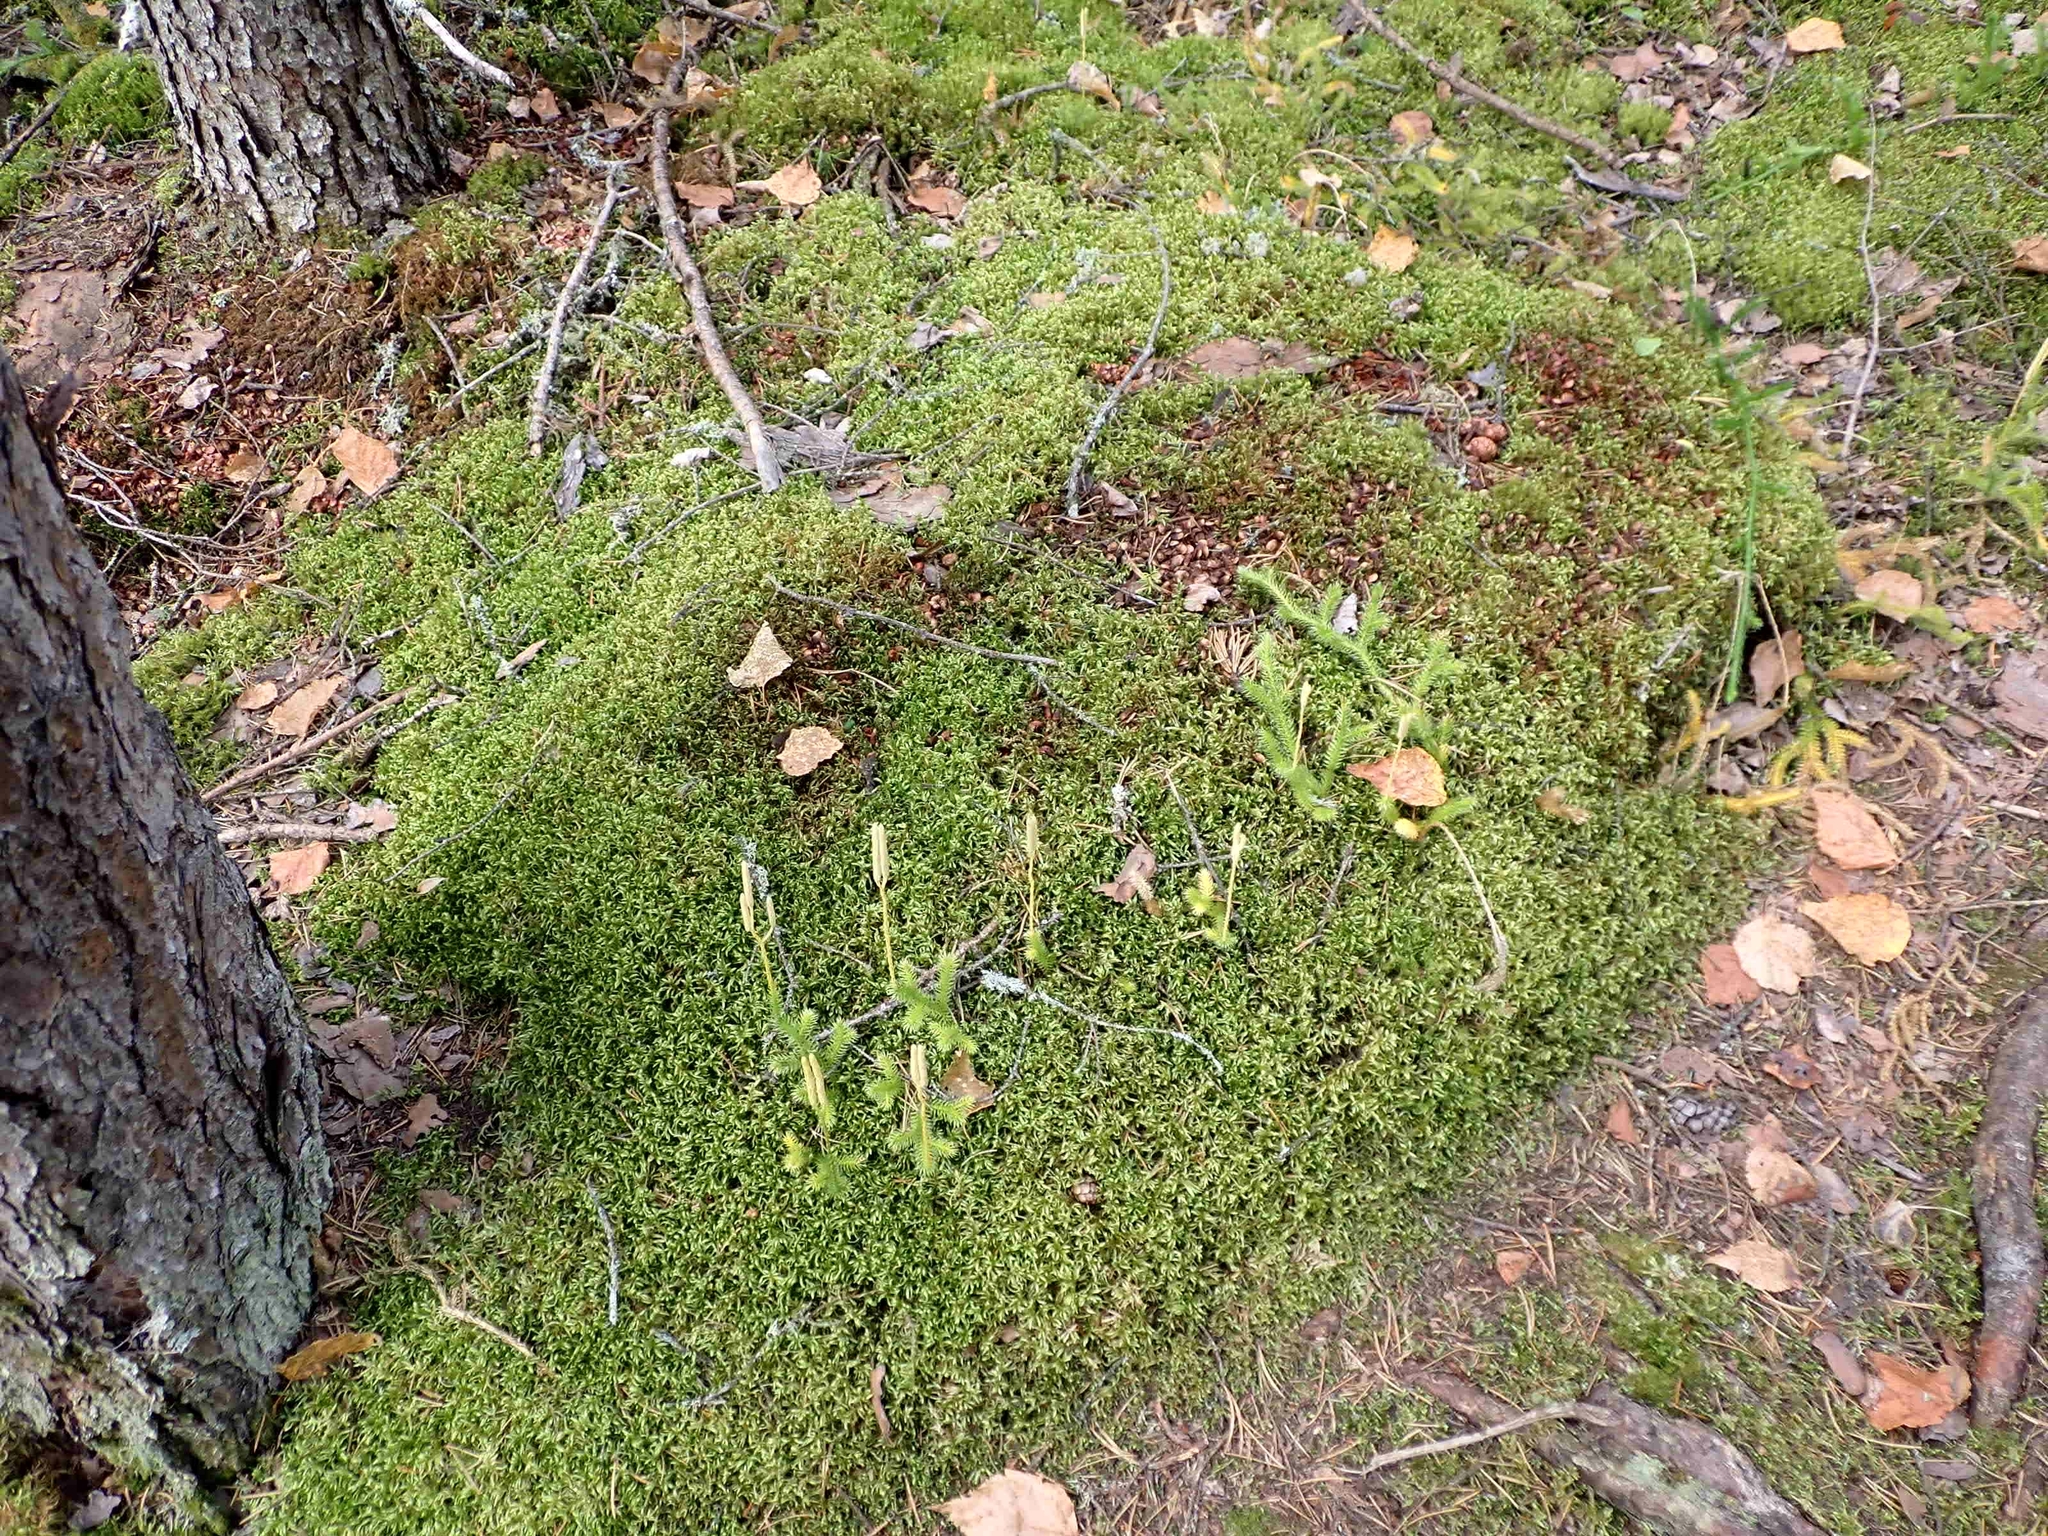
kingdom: Plantae
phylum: Tracheophyta
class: Lycopodiopsida
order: Lycopodiales
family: Lycopodiaceae
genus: Lycopodium
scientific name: Lycopodium clavatum
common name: Stag's-horn clubmoss
